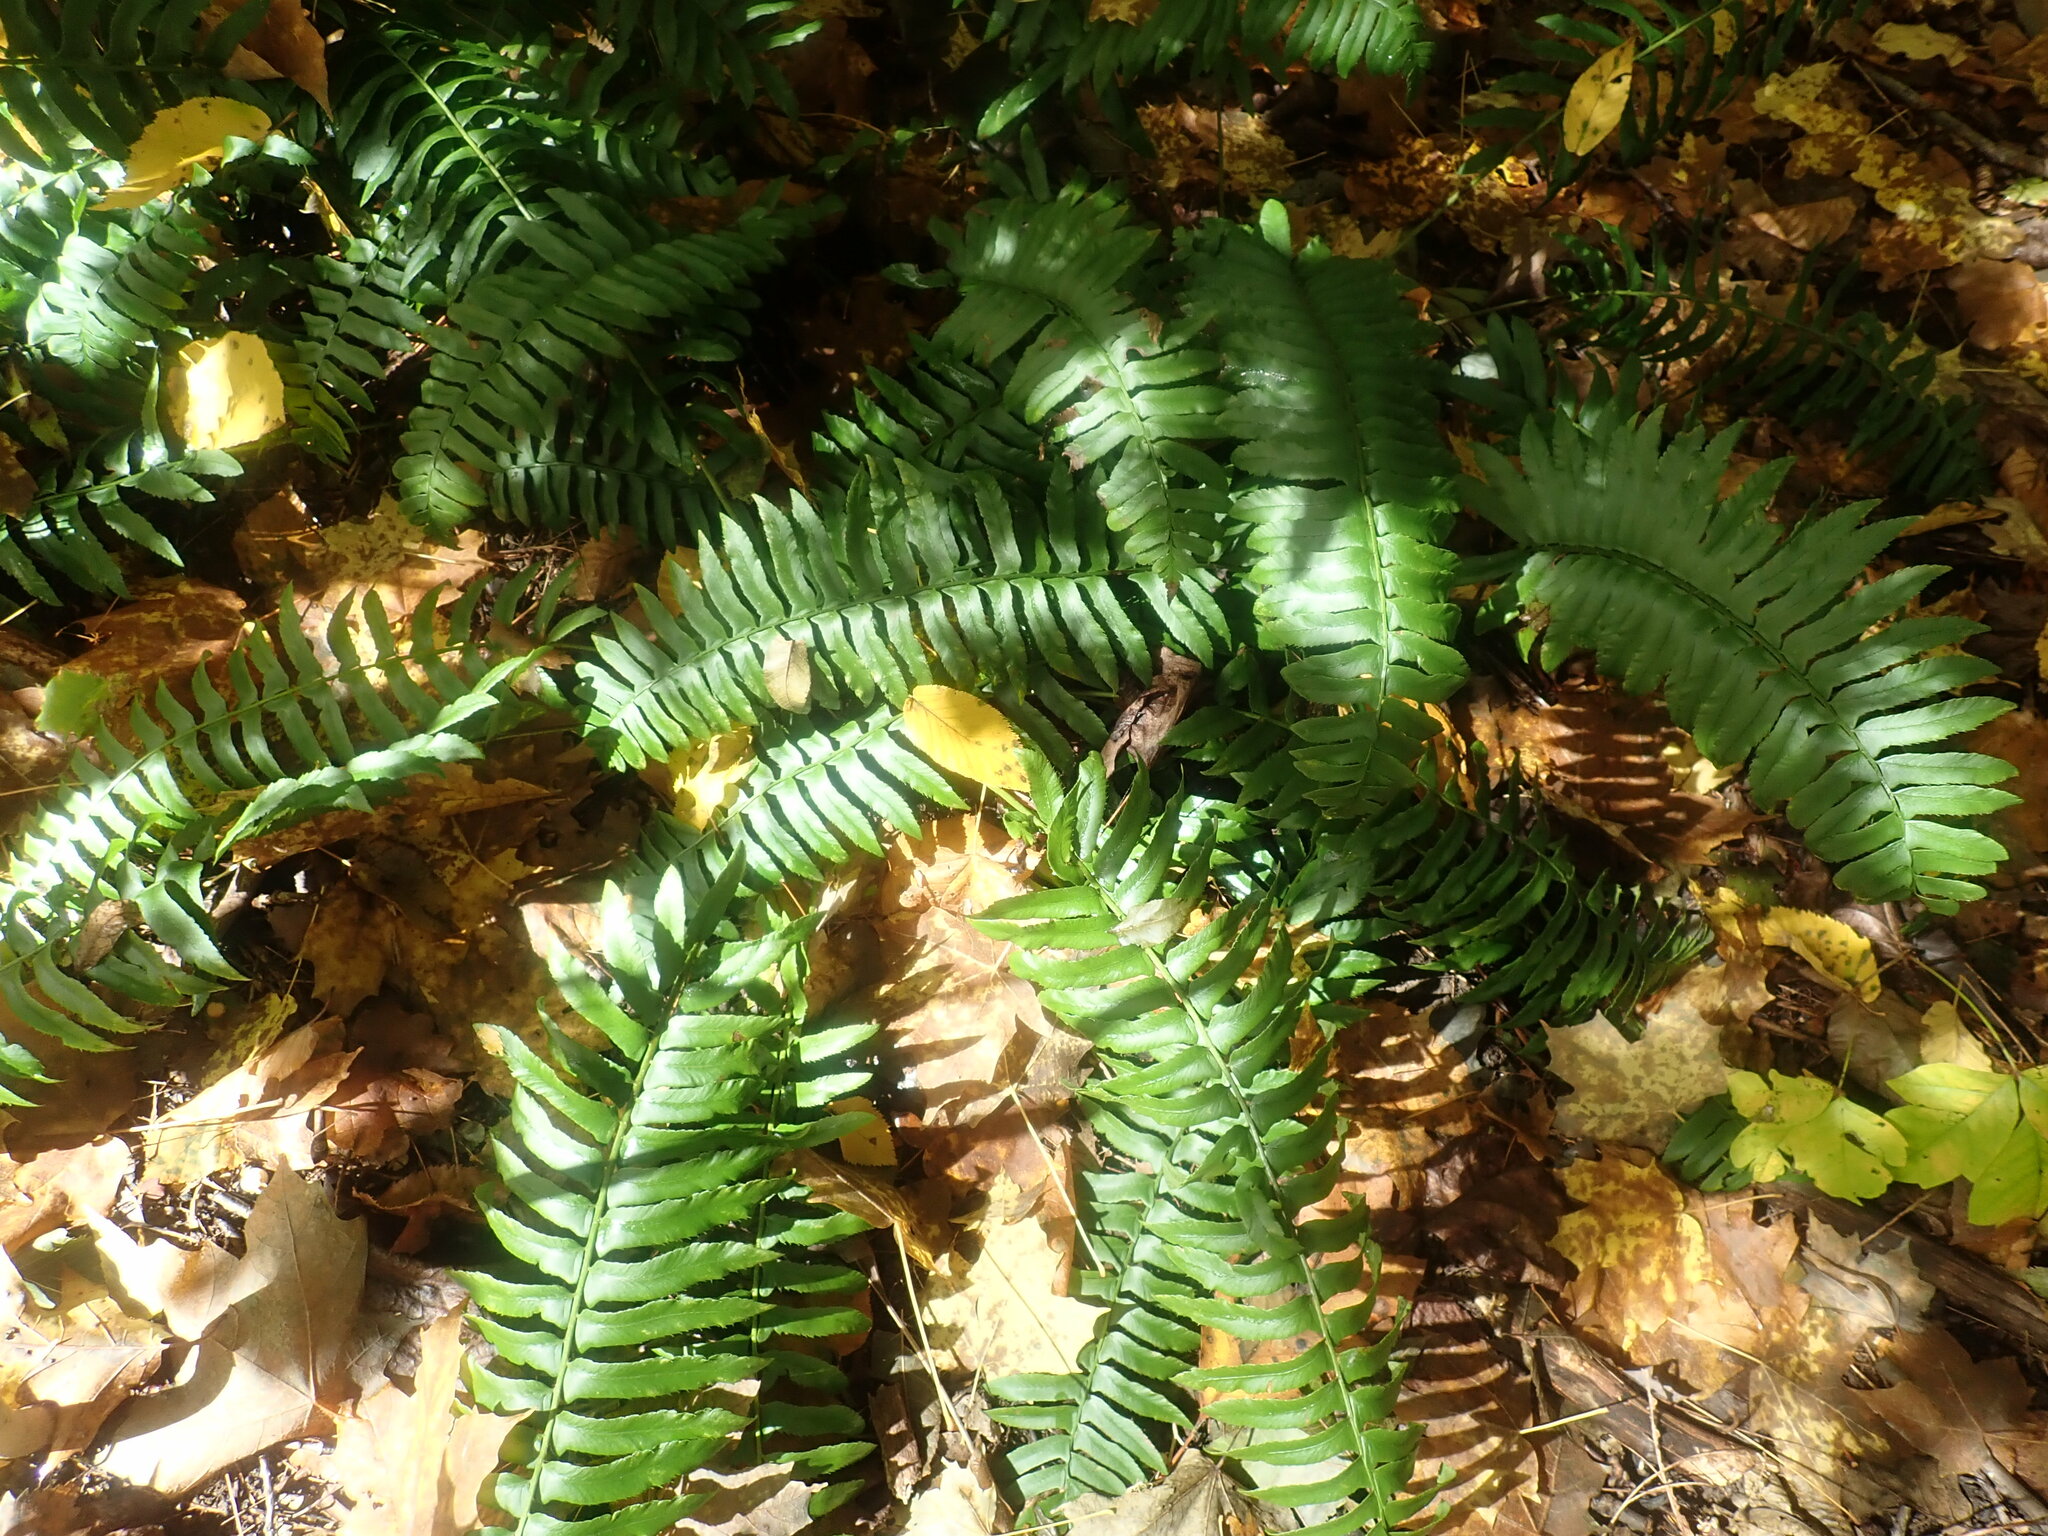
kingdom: Plantae
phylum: Tracheophyta
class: Polypodiopsida
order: Polypodiales
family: Dryopteridaceae
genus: Polystichum
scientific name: Polystichum acrostichoides
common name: Christmas fern
